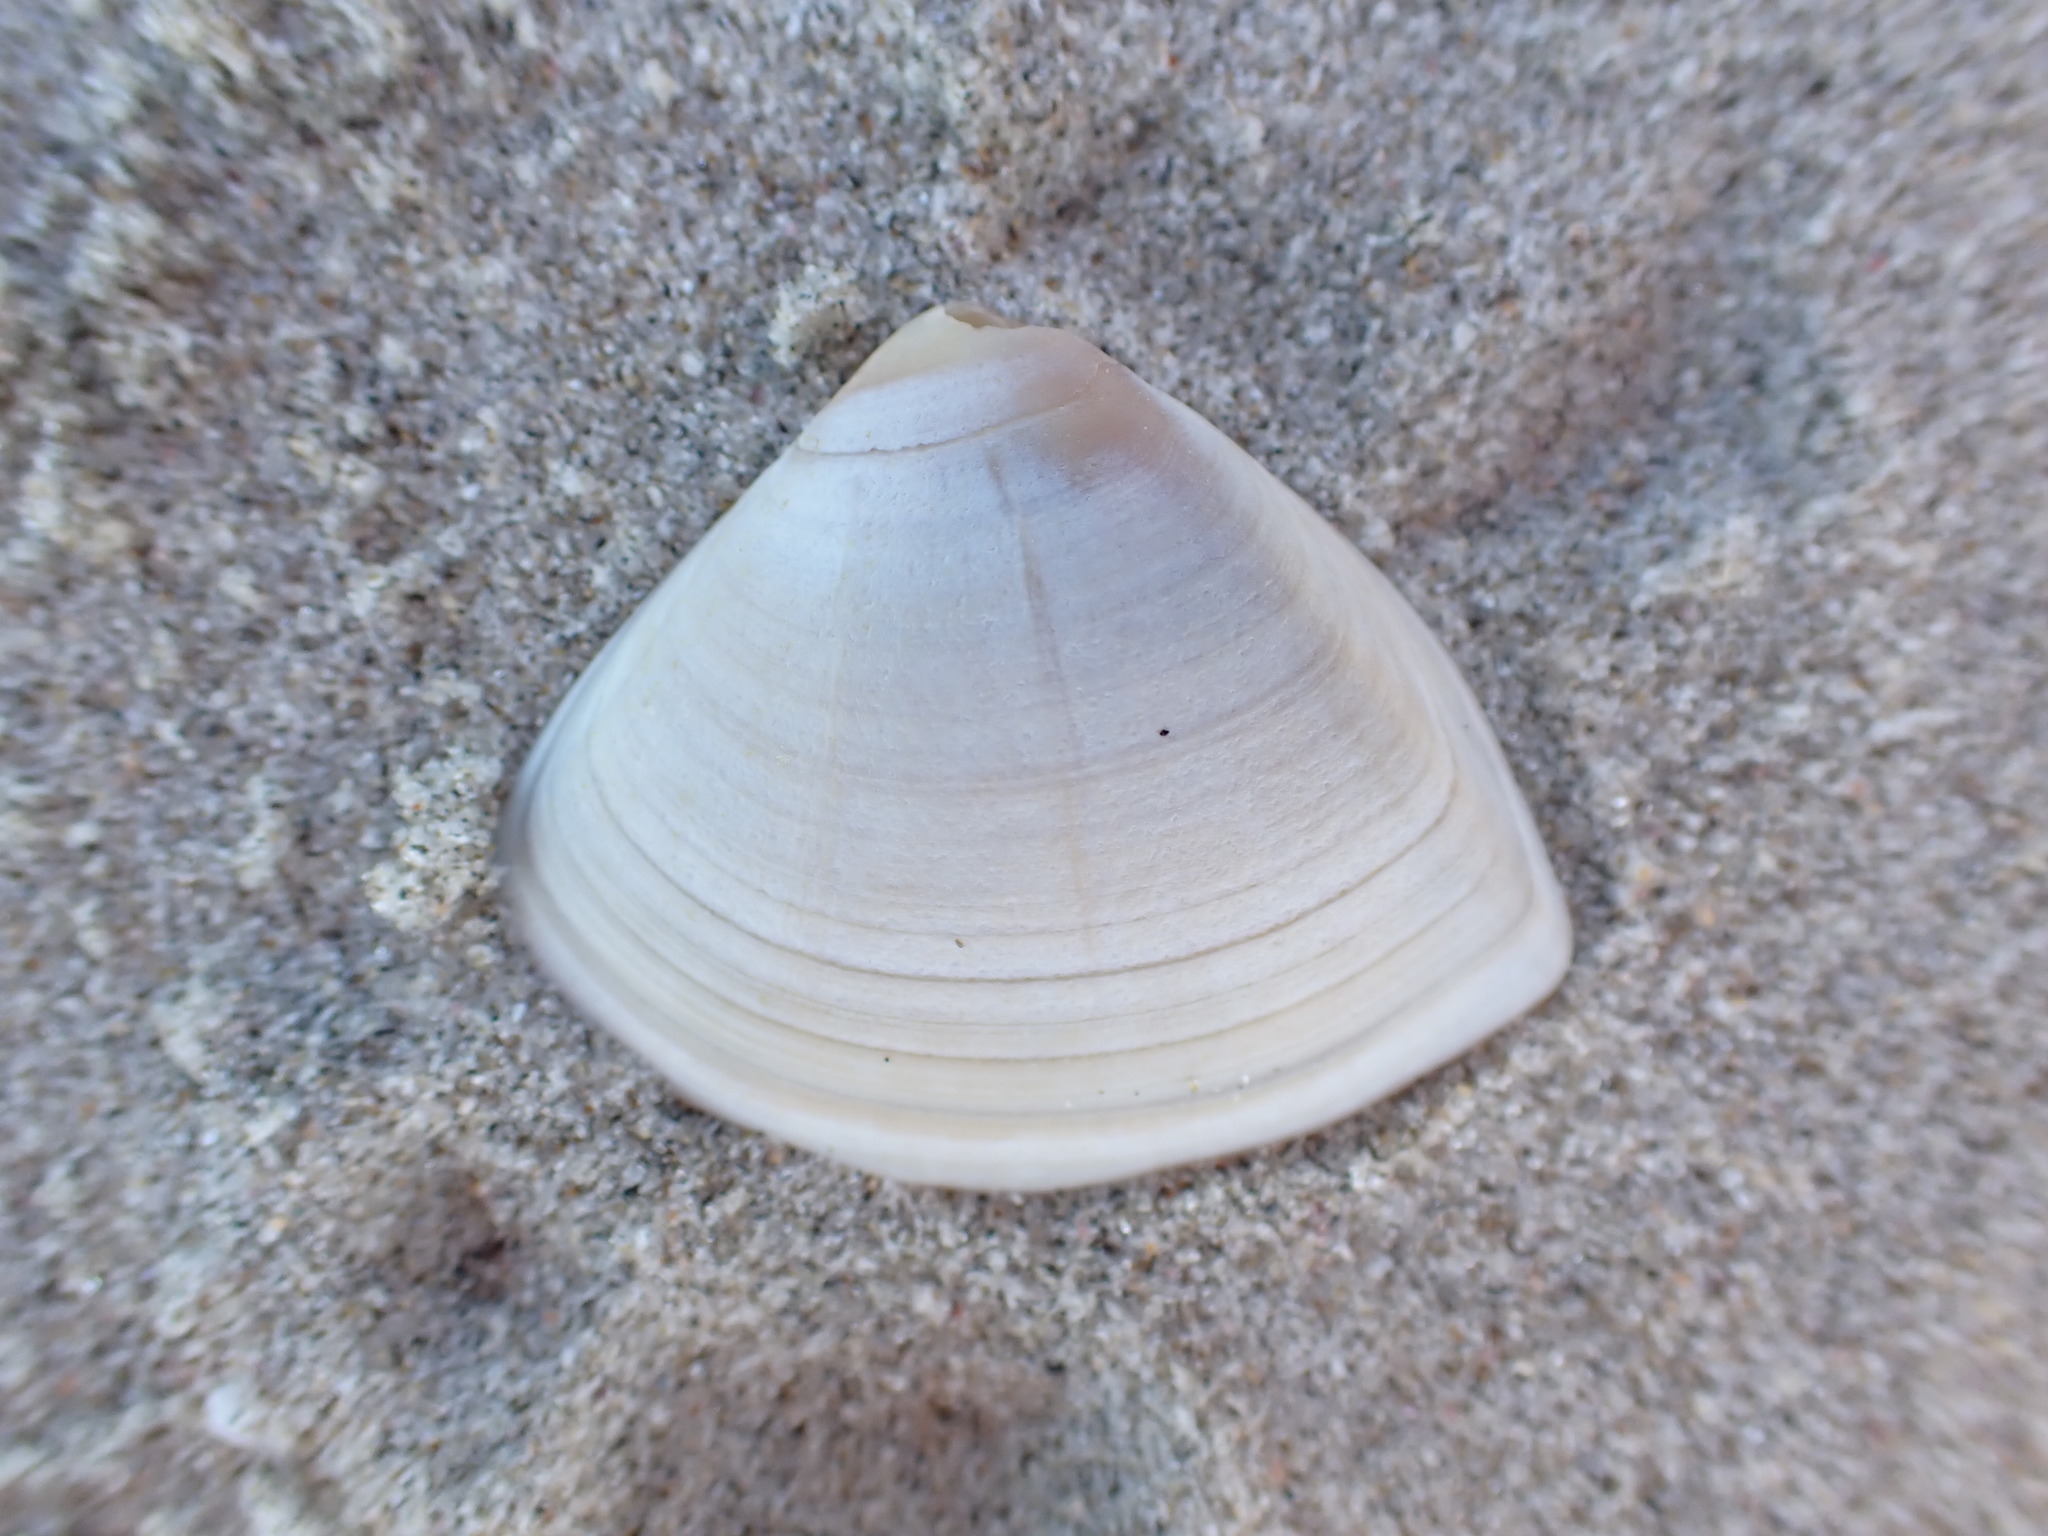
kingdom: Animalia
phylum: Mollusca
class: Bivalvia
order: Venerida
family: Mactridae
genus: Crassula
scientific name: Crassula aequilatera
